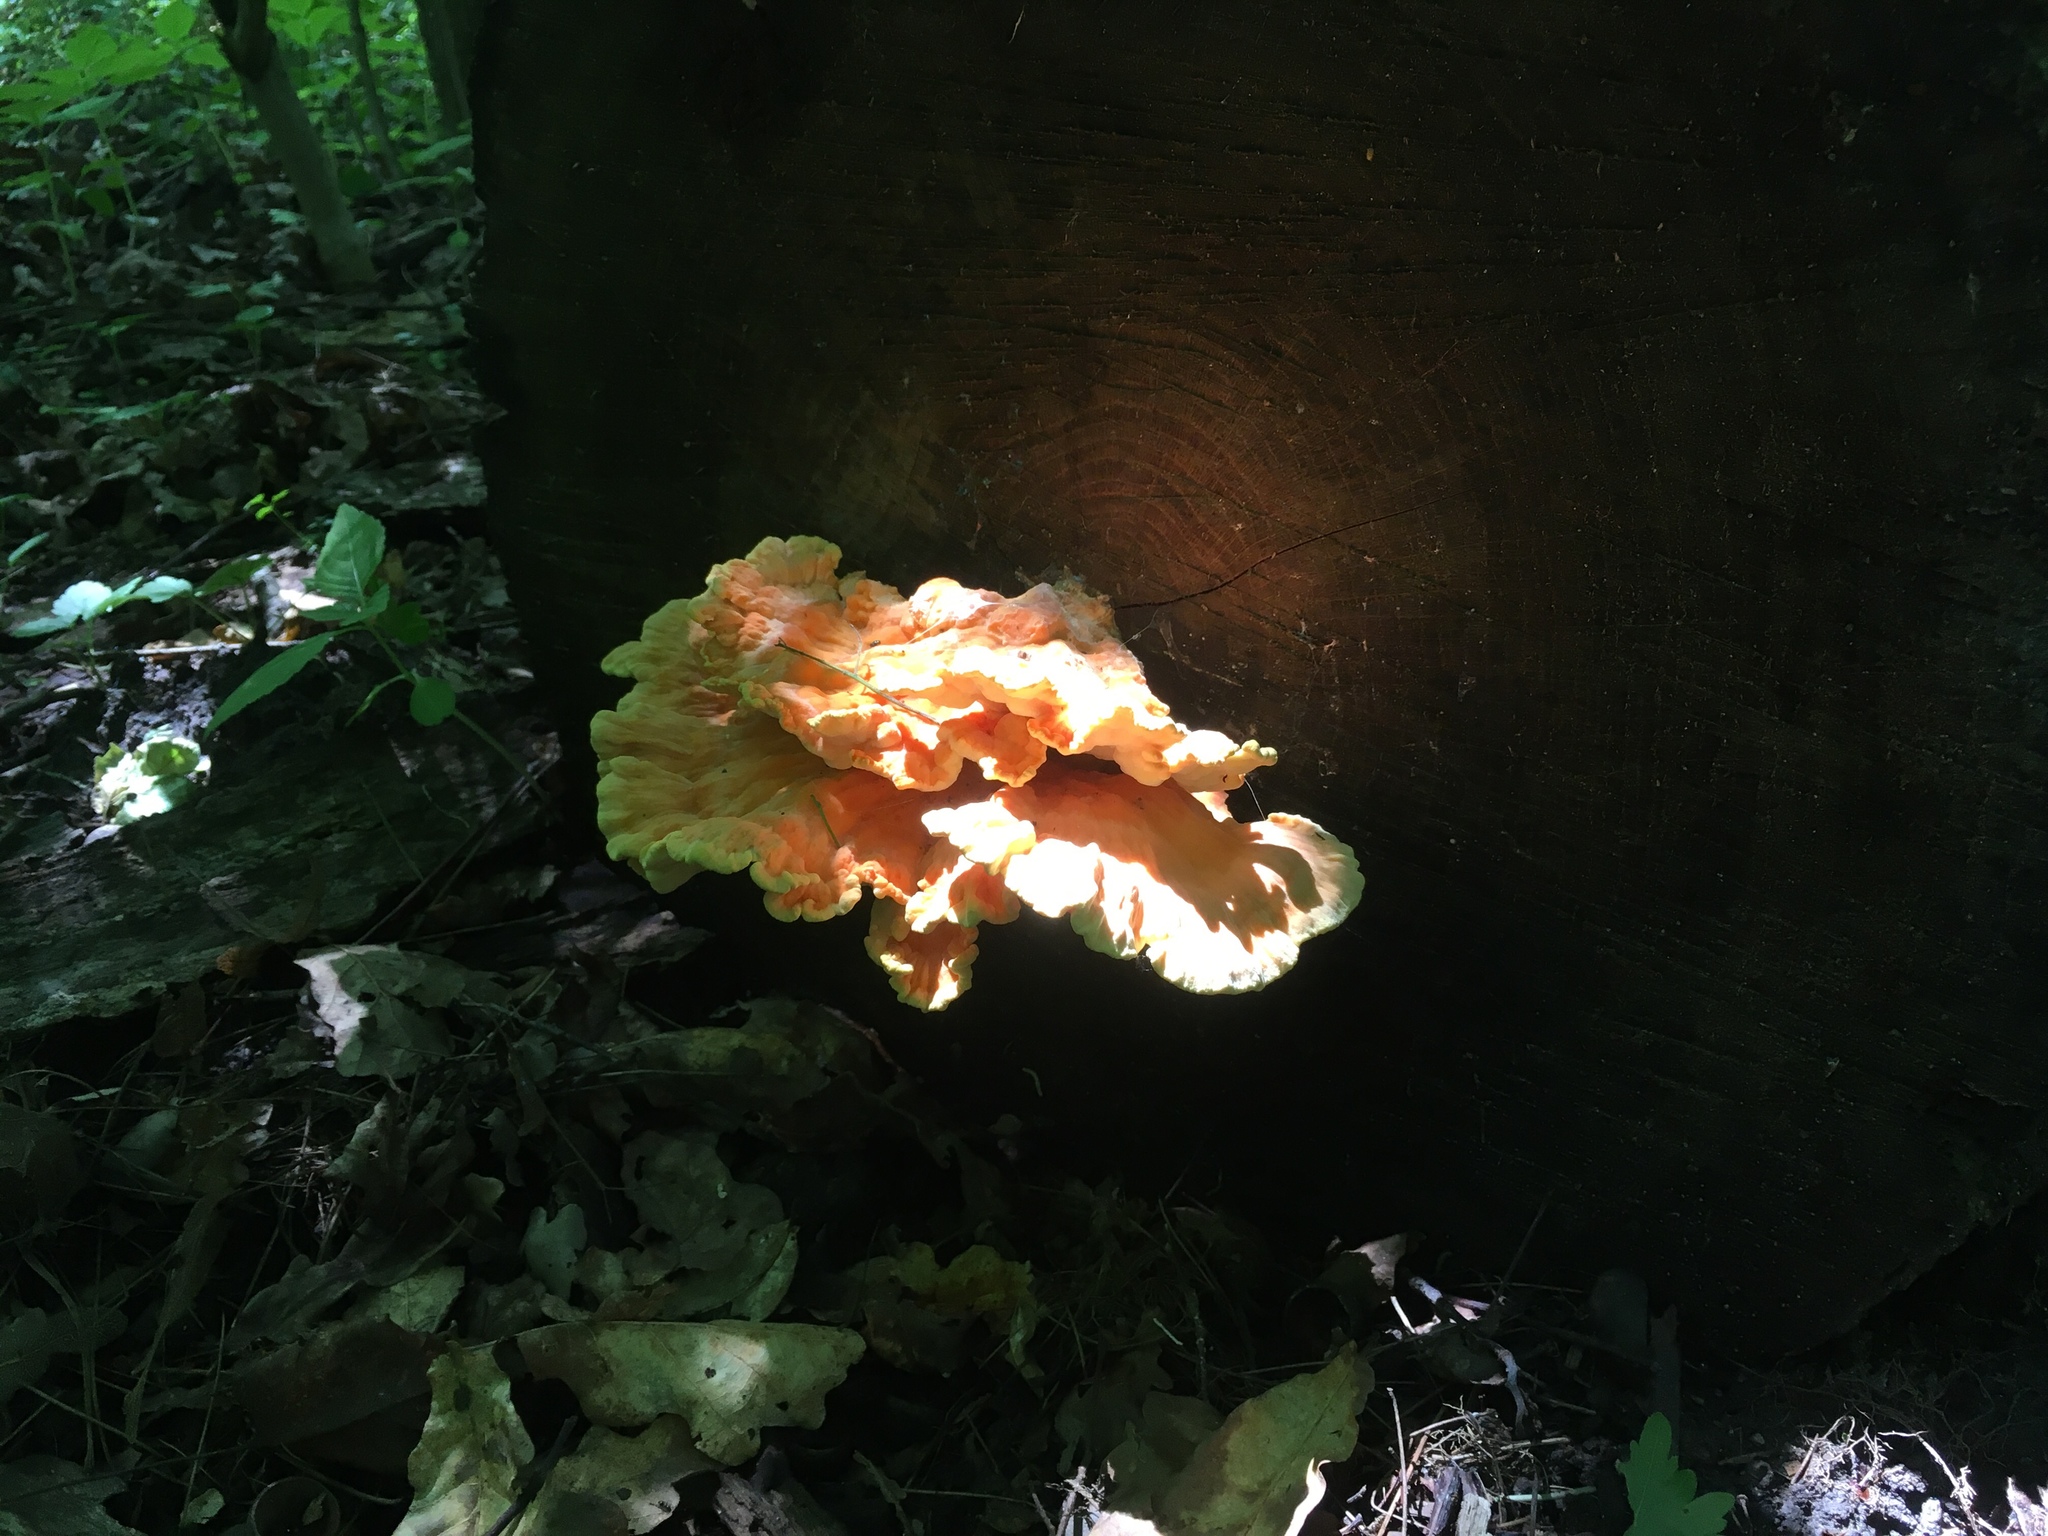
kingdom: Fungi
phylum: Basidiomycota
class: Agaricomycetes
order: Polyporales
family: Laetiporaceae
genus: Laetiporus
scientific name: Laetiporus sulphureus
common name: Chicken of the woods
